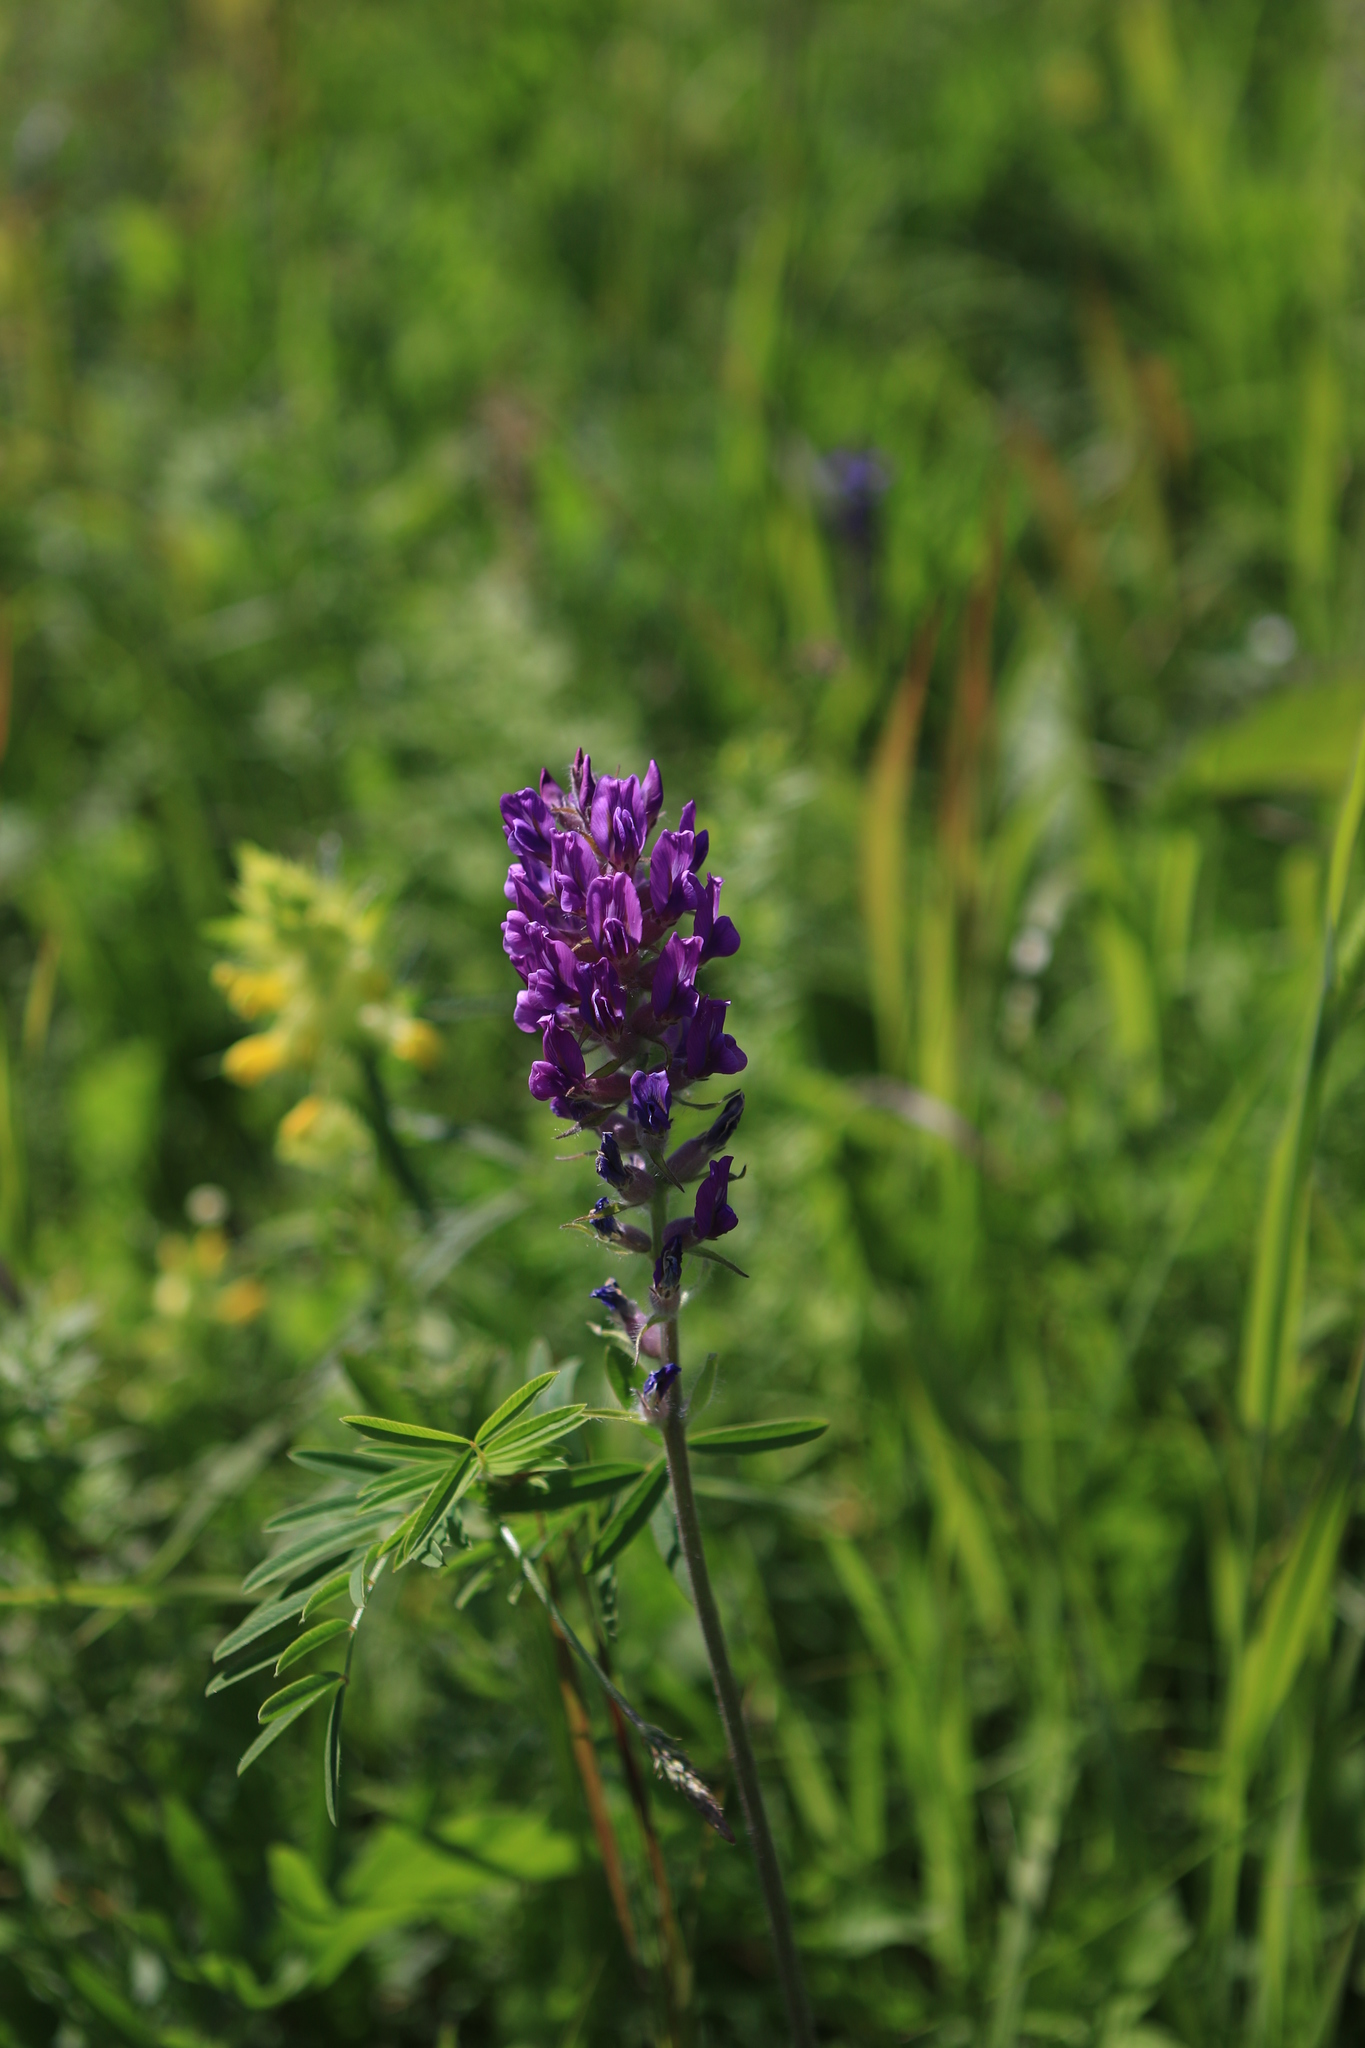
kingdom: Plantae
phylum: Tracheophyta
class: Magnoliopsida
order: Fabales
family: Fabaceae
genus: Oxytropis
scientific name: Oxytropis campanulata
